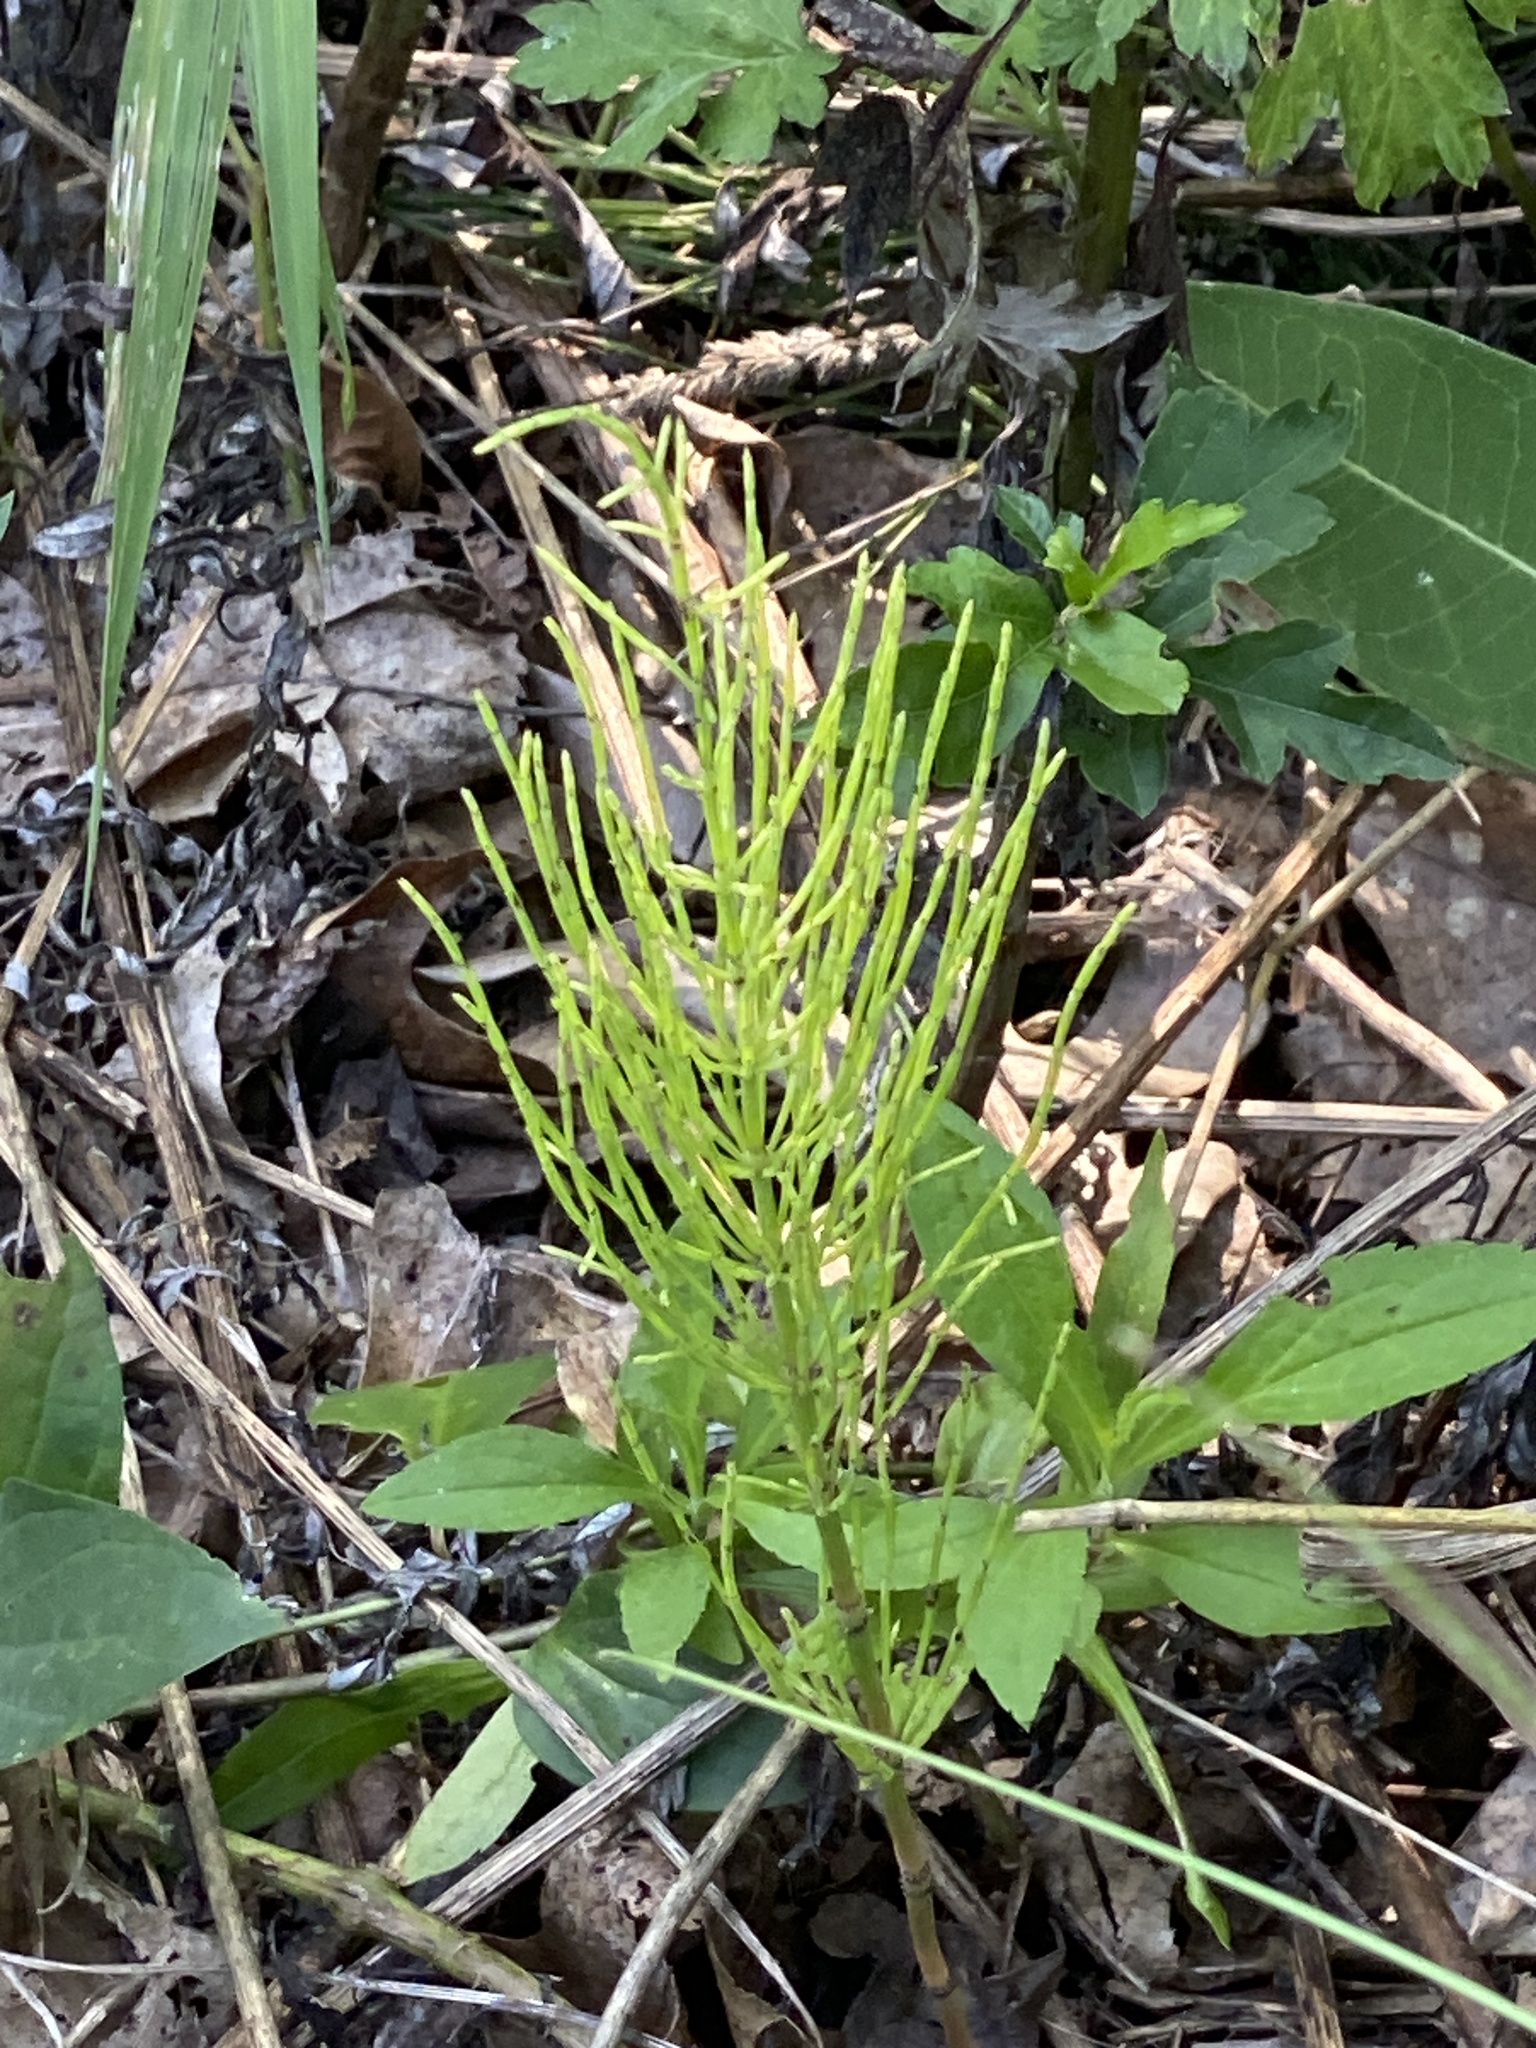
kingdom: Plantae
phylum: Tracheophyta
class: Polypodiopsida
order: Equisetales
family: Equisetaceae
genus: Equisetum
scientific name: Equisetum arvense
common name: Field horsetail
